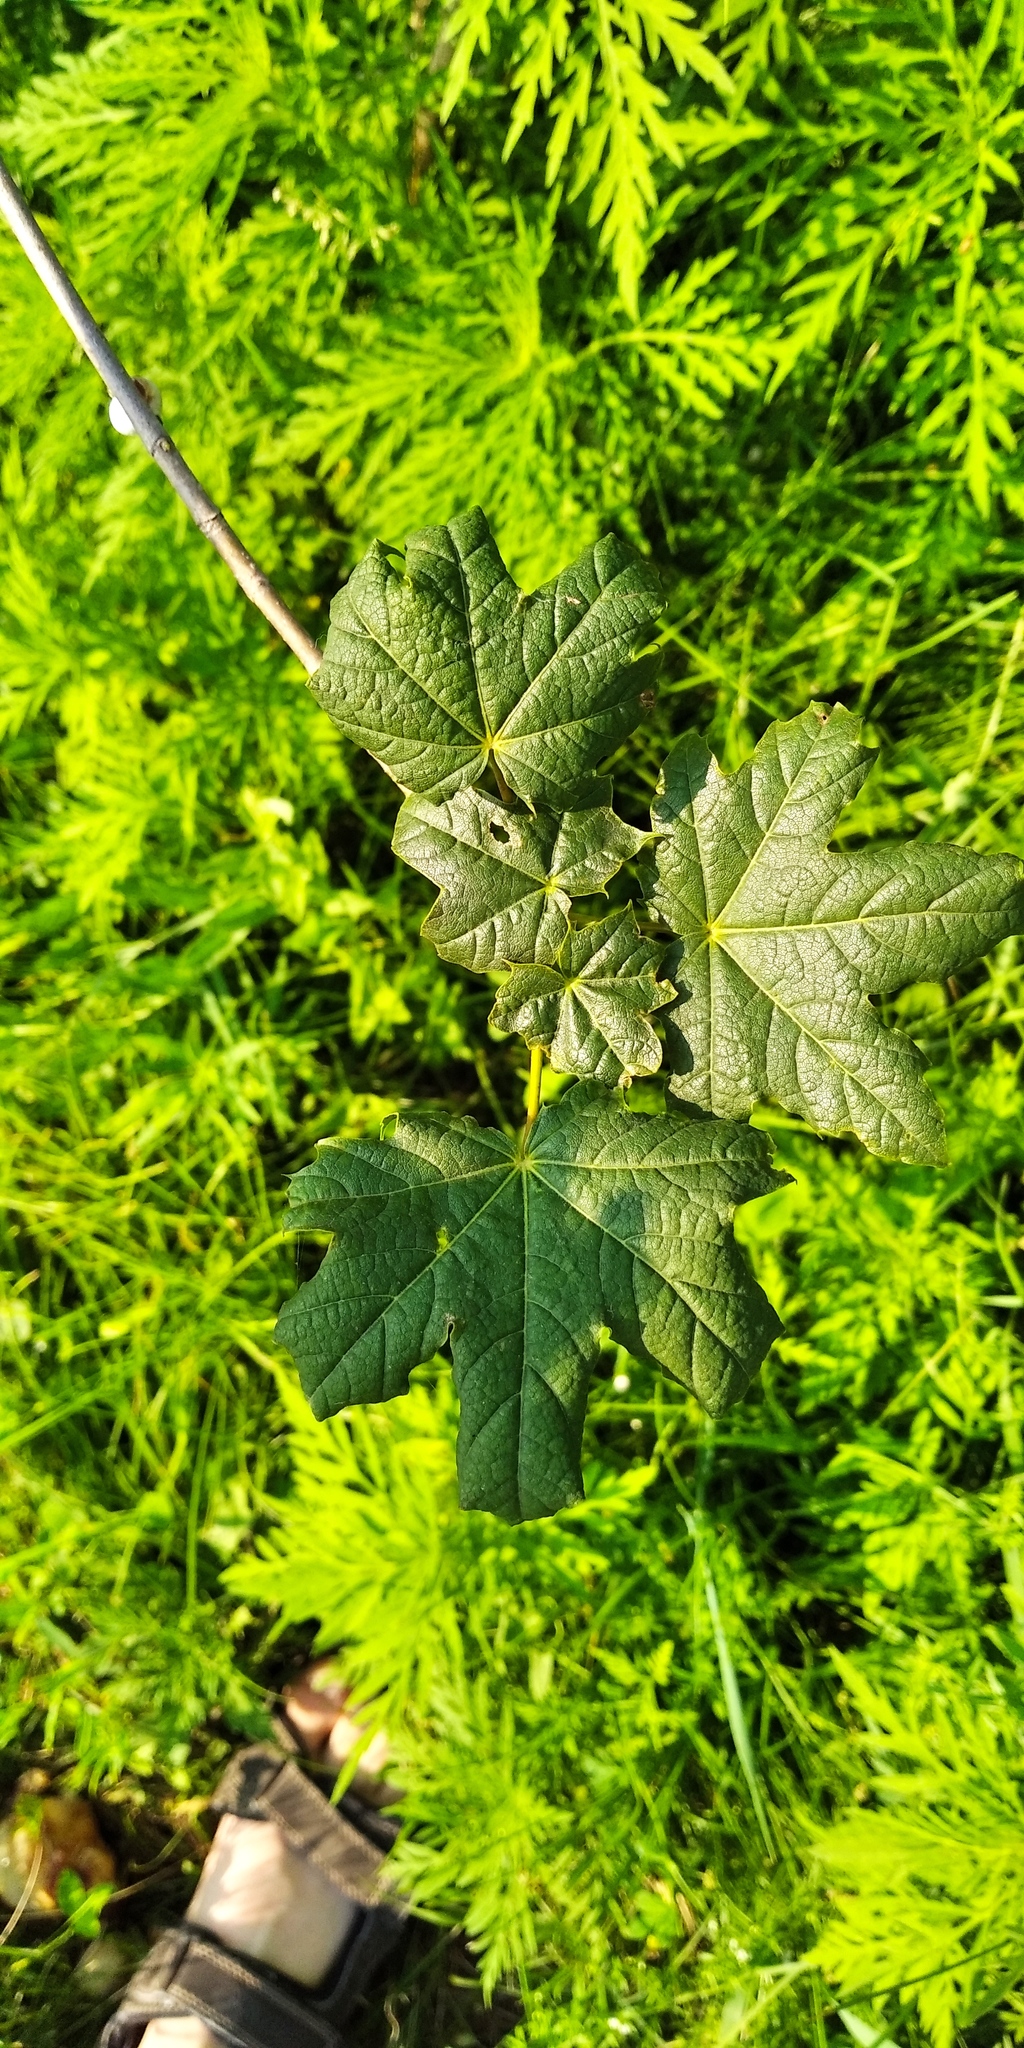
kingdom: Plantae
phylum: Tracheophyta
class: Magnoliopsida
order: Sapindales
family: Sapindaceae
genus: Acer
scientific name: Acer platanoides
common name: Norway maple
